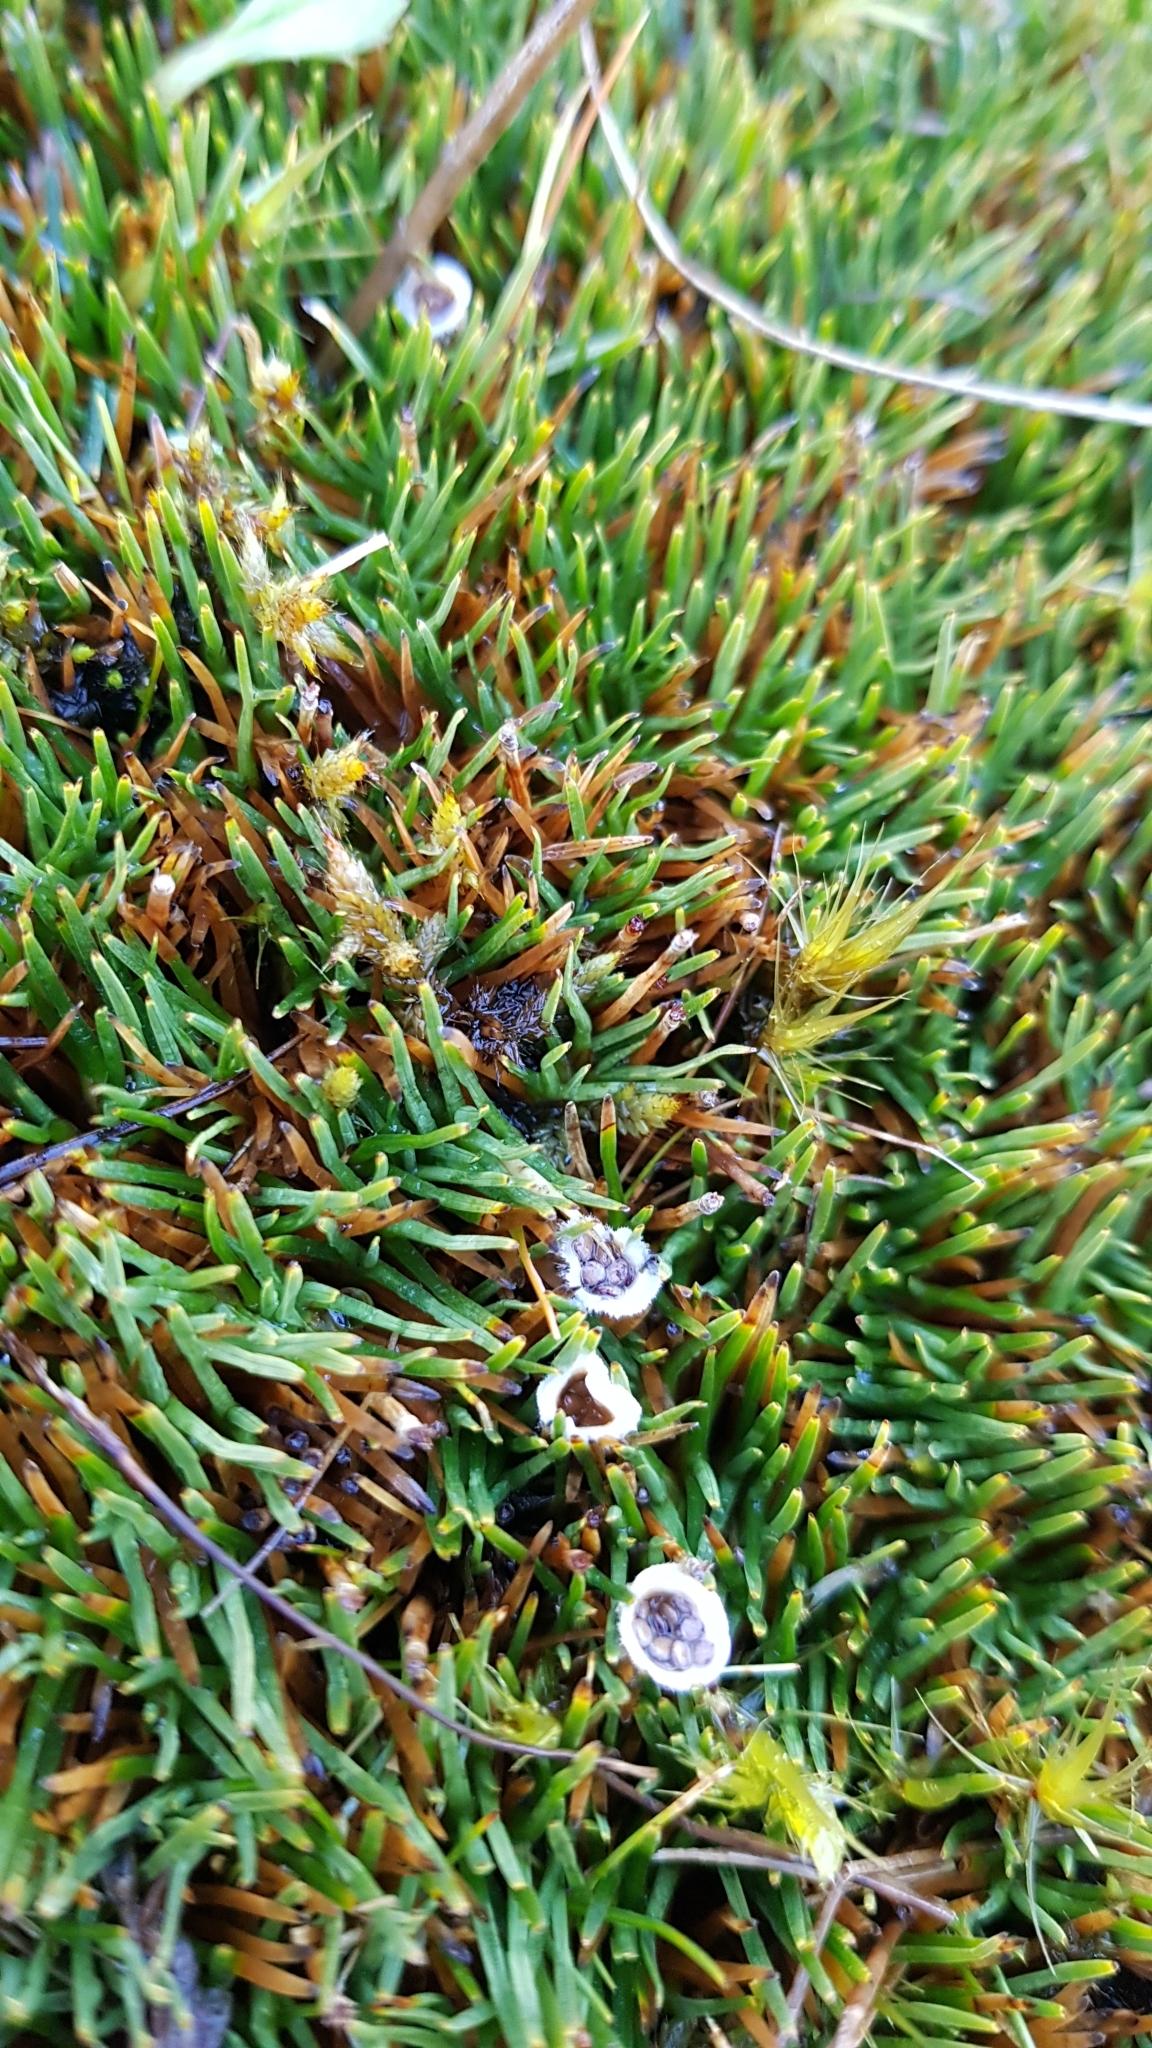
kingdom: Plantae
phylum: Tracheophyta
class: Liliopsida
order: Poales
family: Cyperaceae
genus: Oreobolus
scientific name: Oreobolus pectinatus
